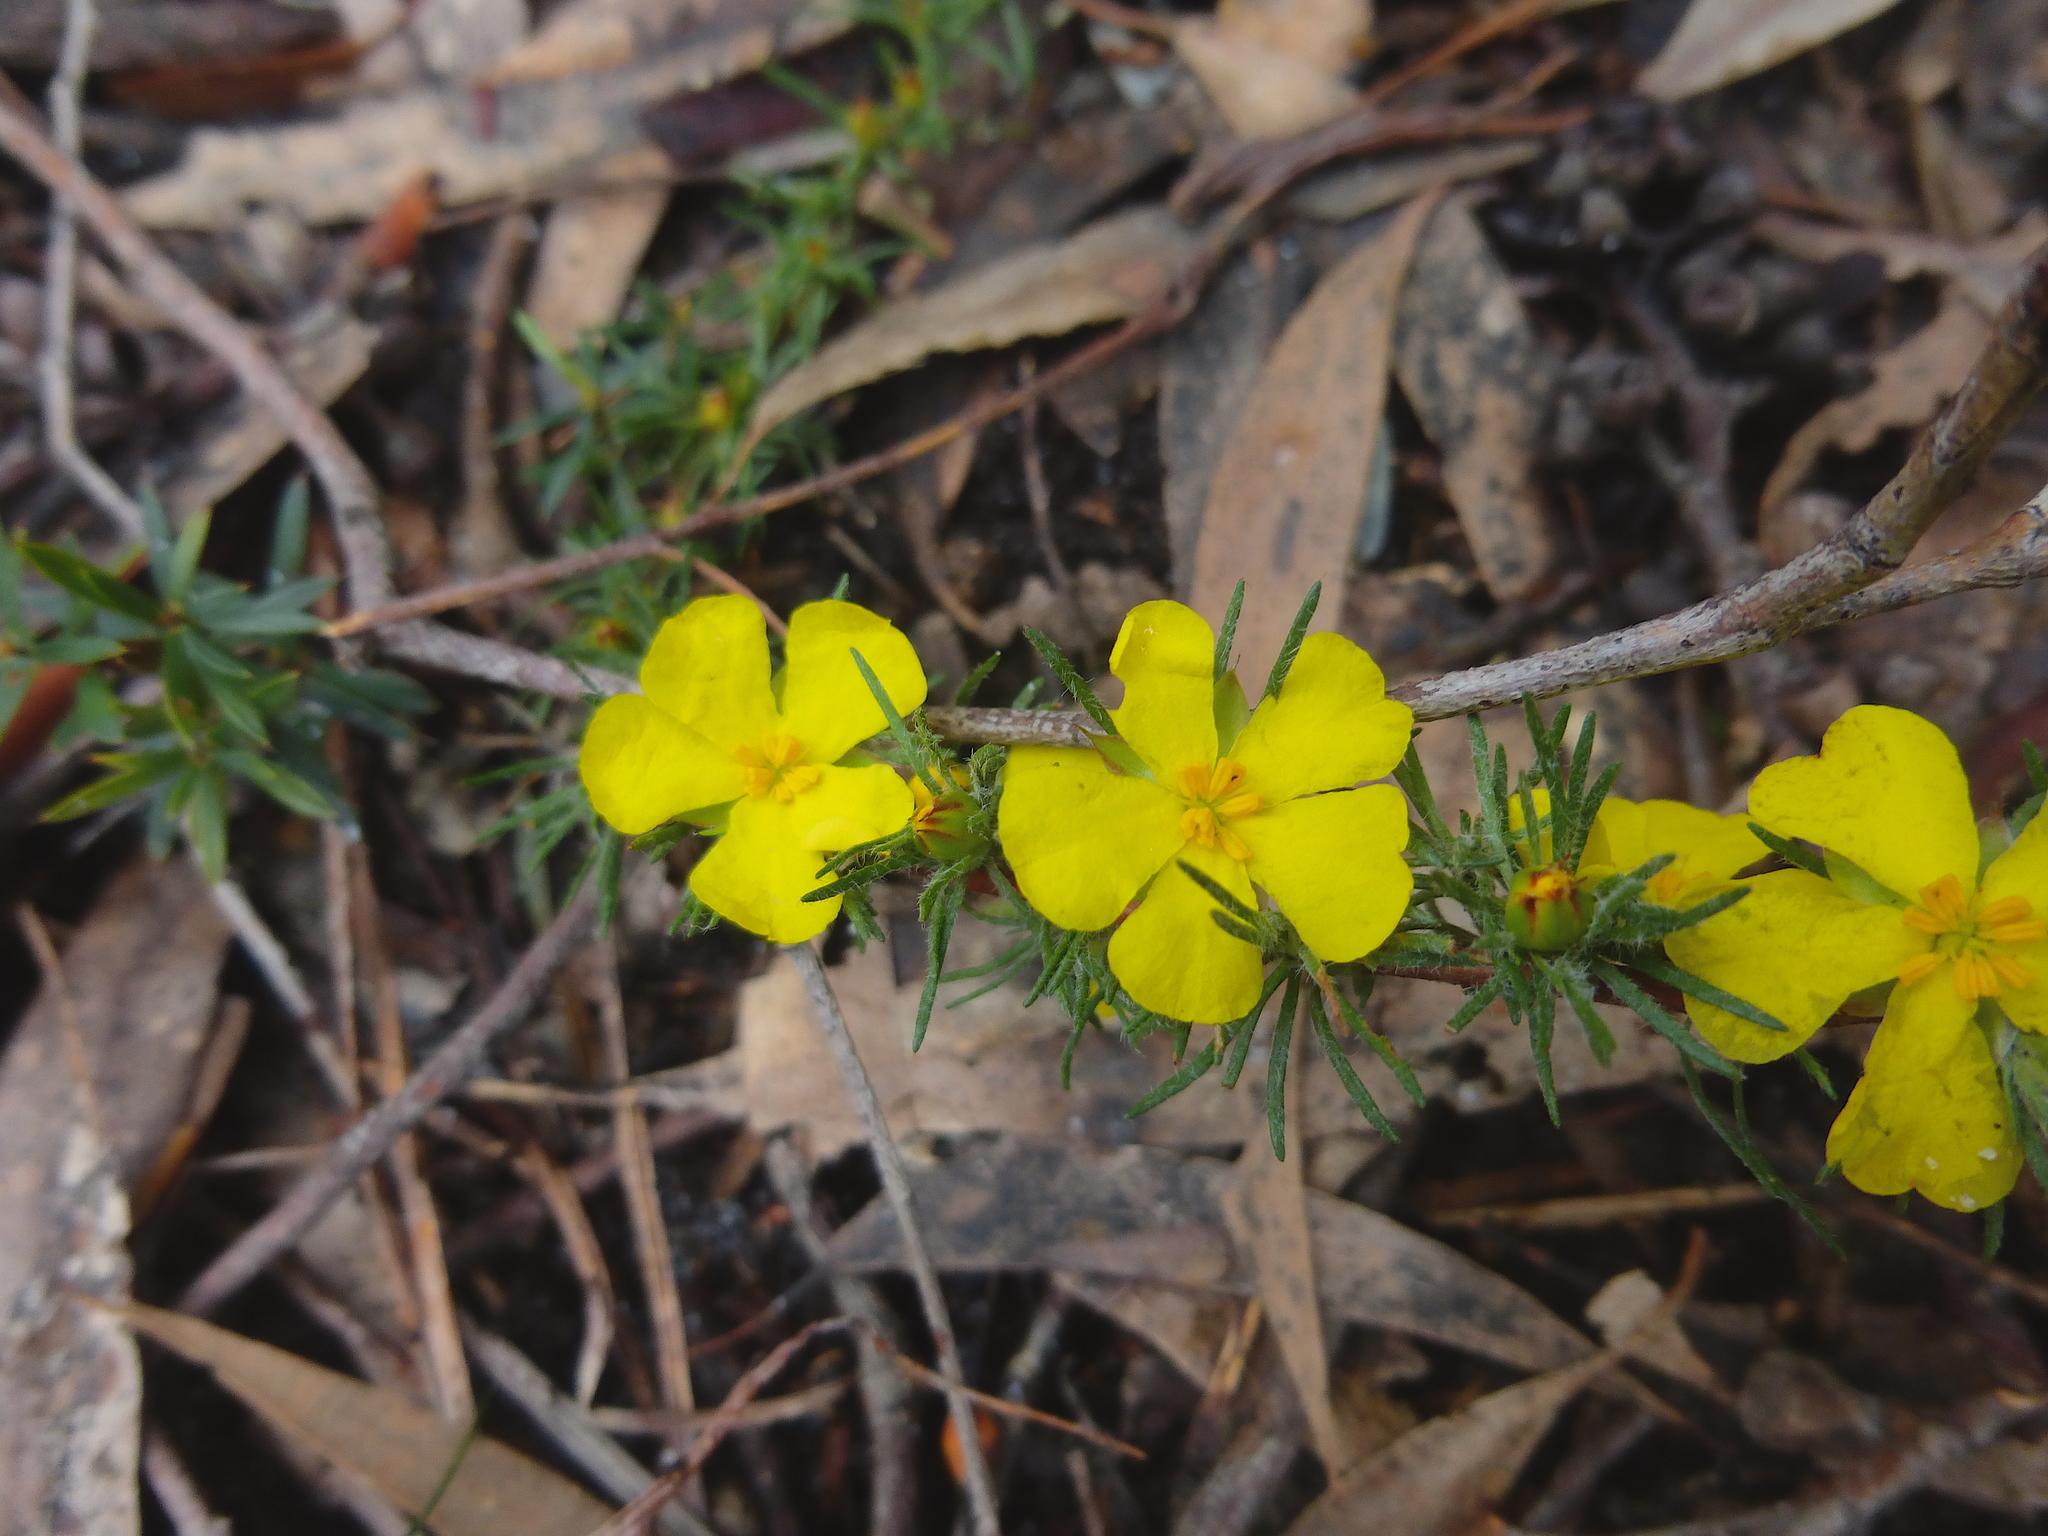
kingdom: Plantae
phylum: Tracheophyta
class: Magnoliopsida
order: Dilleniales
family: Dilleniaceae
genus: Hibbertia
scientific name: Hibbertia prostrata
